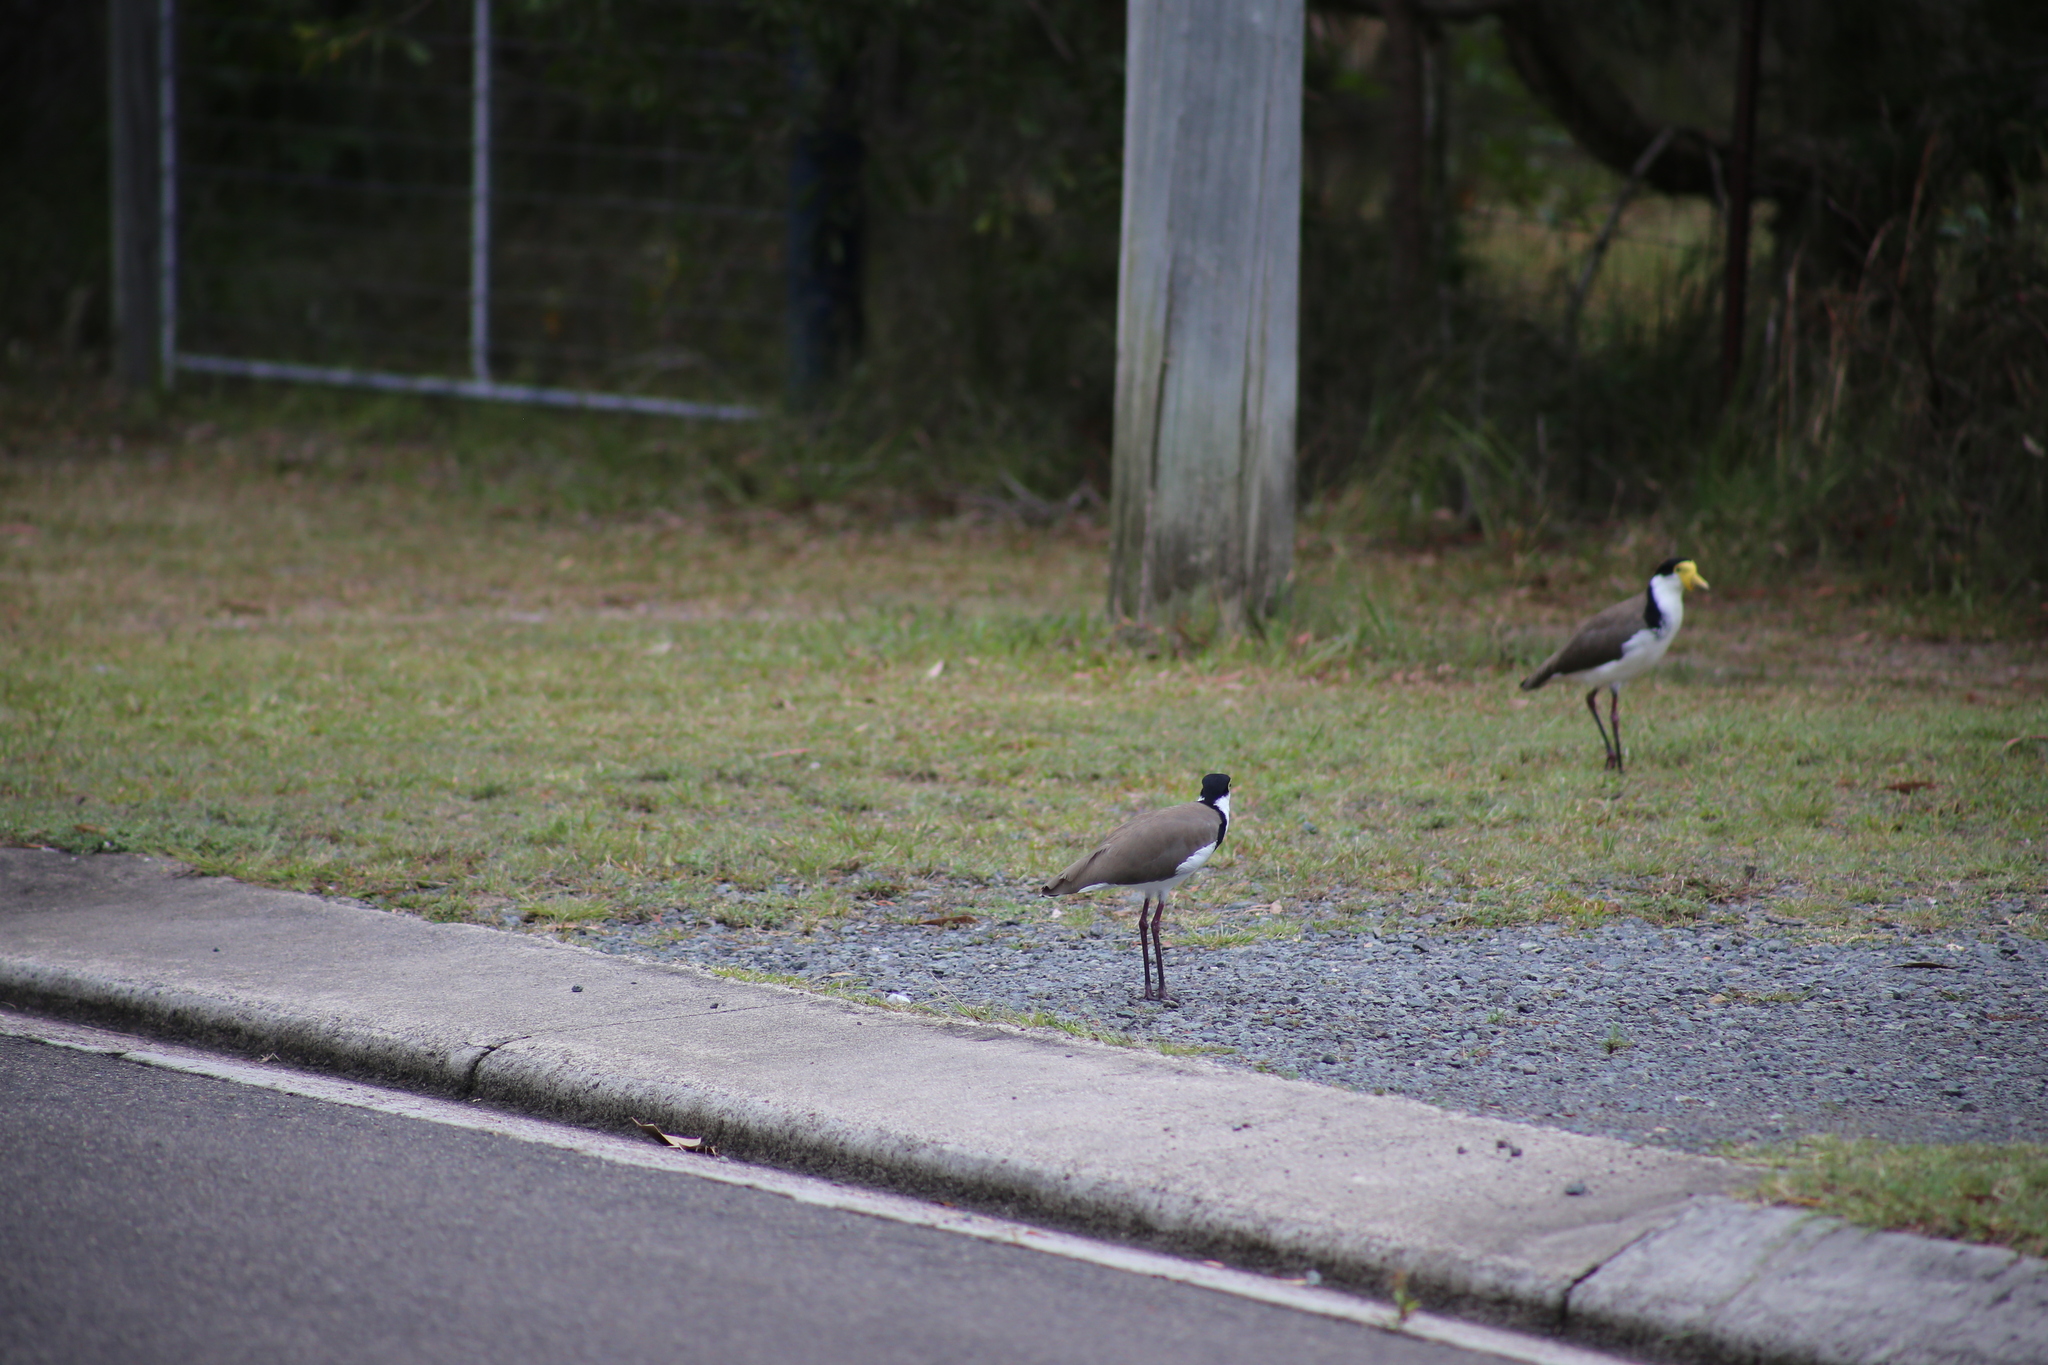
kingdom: Animalia
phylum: Chordata
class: Aves
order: Charadriiformes
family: Charadriidae
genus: Vanellus
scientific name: Vanellus miles
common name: Masked lapwing
